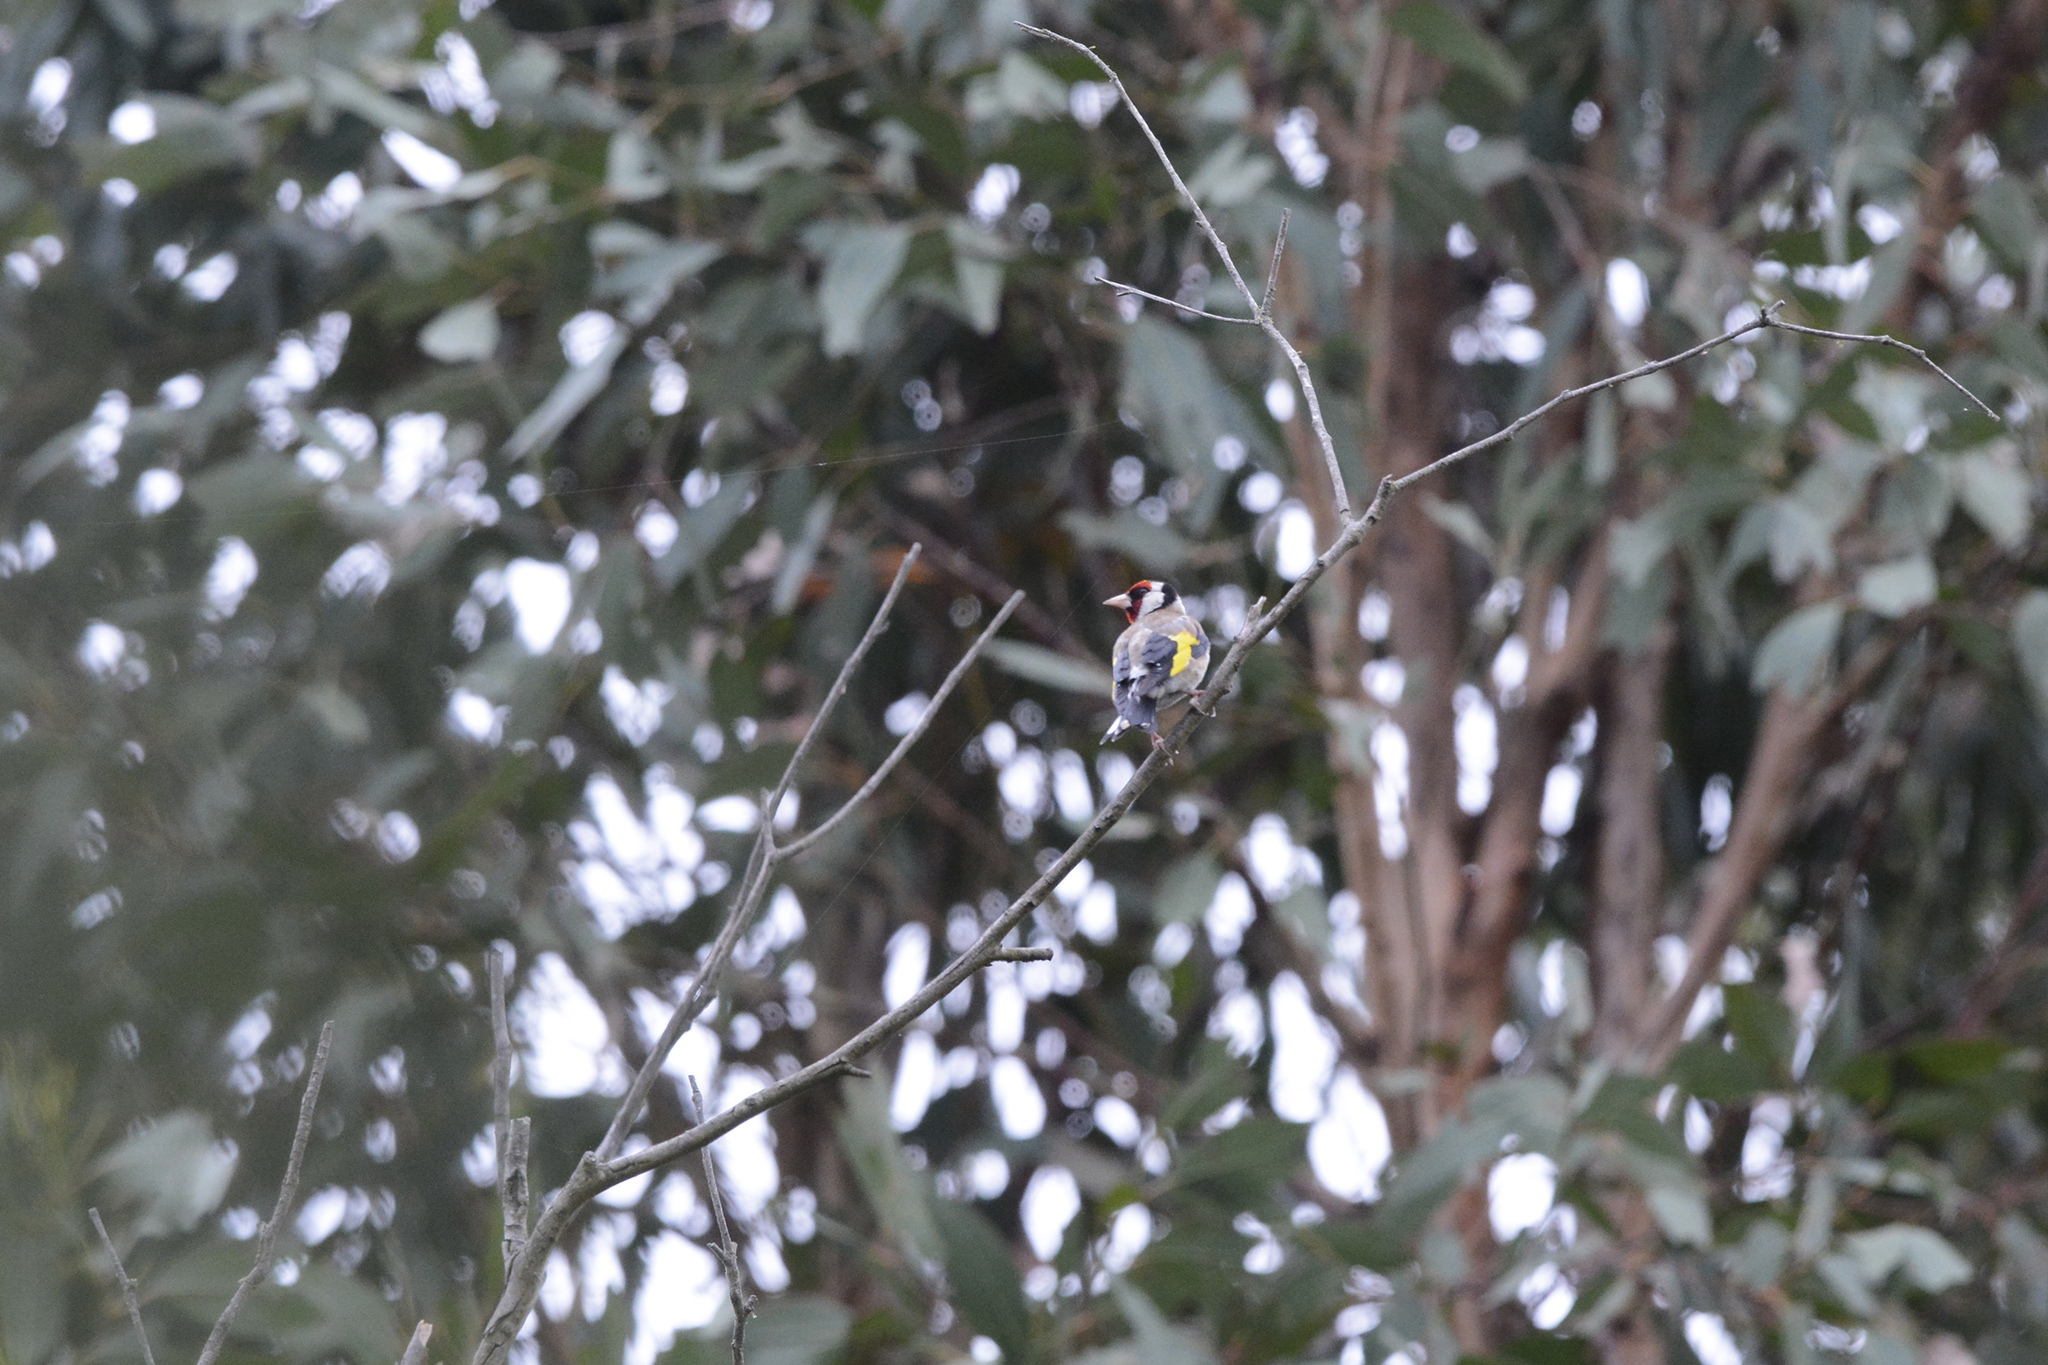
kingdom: Animalia
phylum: Chordata
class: Aves
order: Passeriformes
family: Fringillidae
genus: Carduelis
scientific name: Carduelis carduelis
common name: European goldfinch
